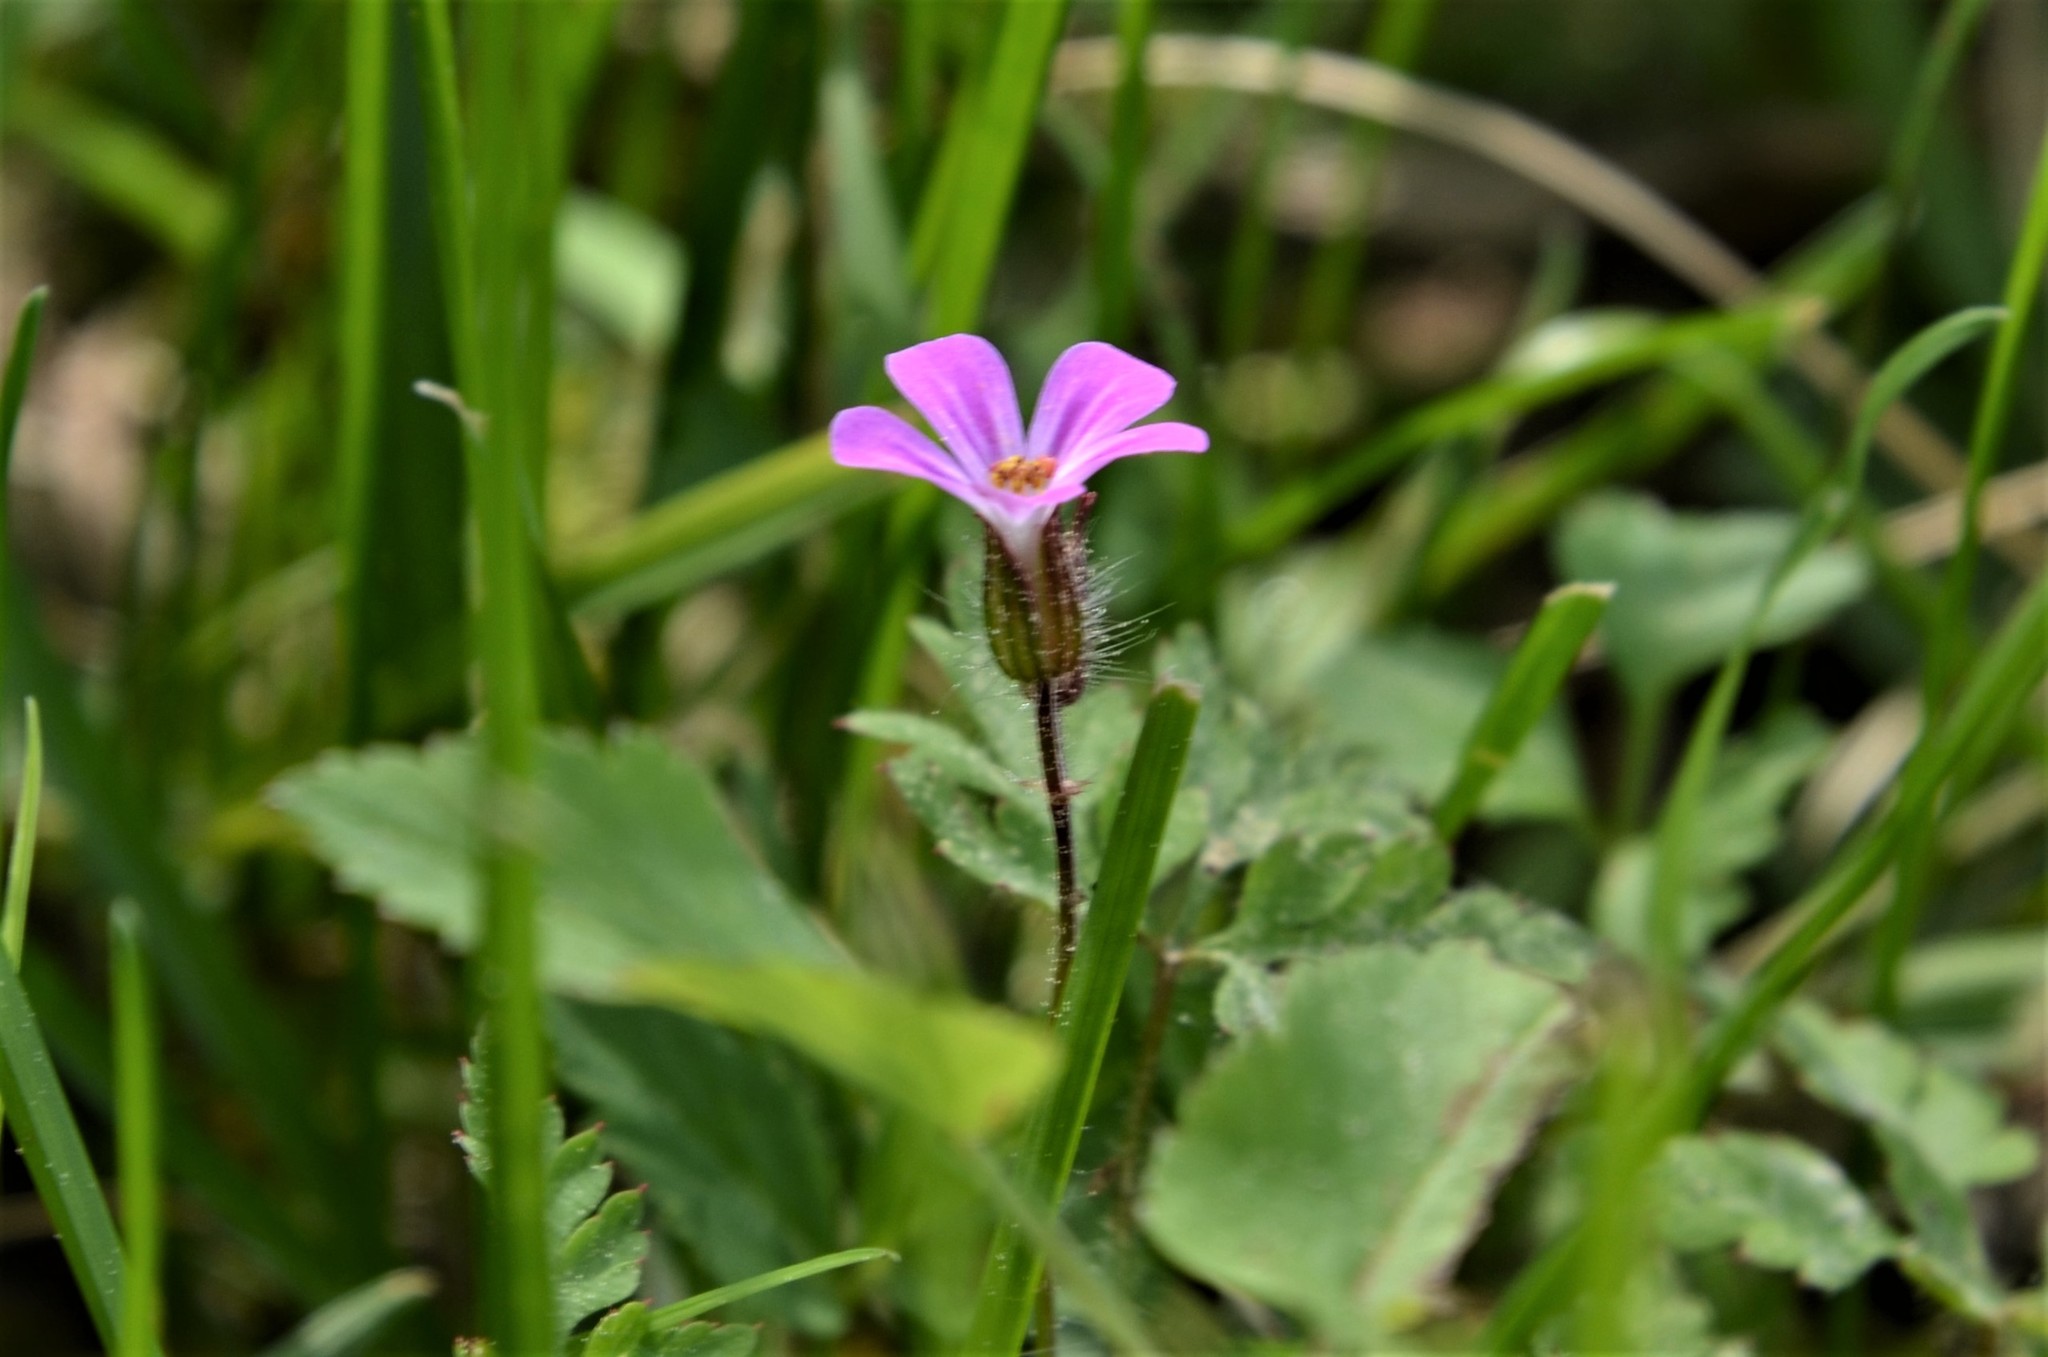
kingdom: Plantae
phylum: Tracheophyta
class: Magnoliopsida
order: Geraniales
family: Geraniaceae
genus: Geranium
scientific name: Geranium robertianum
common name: Herb-robert
